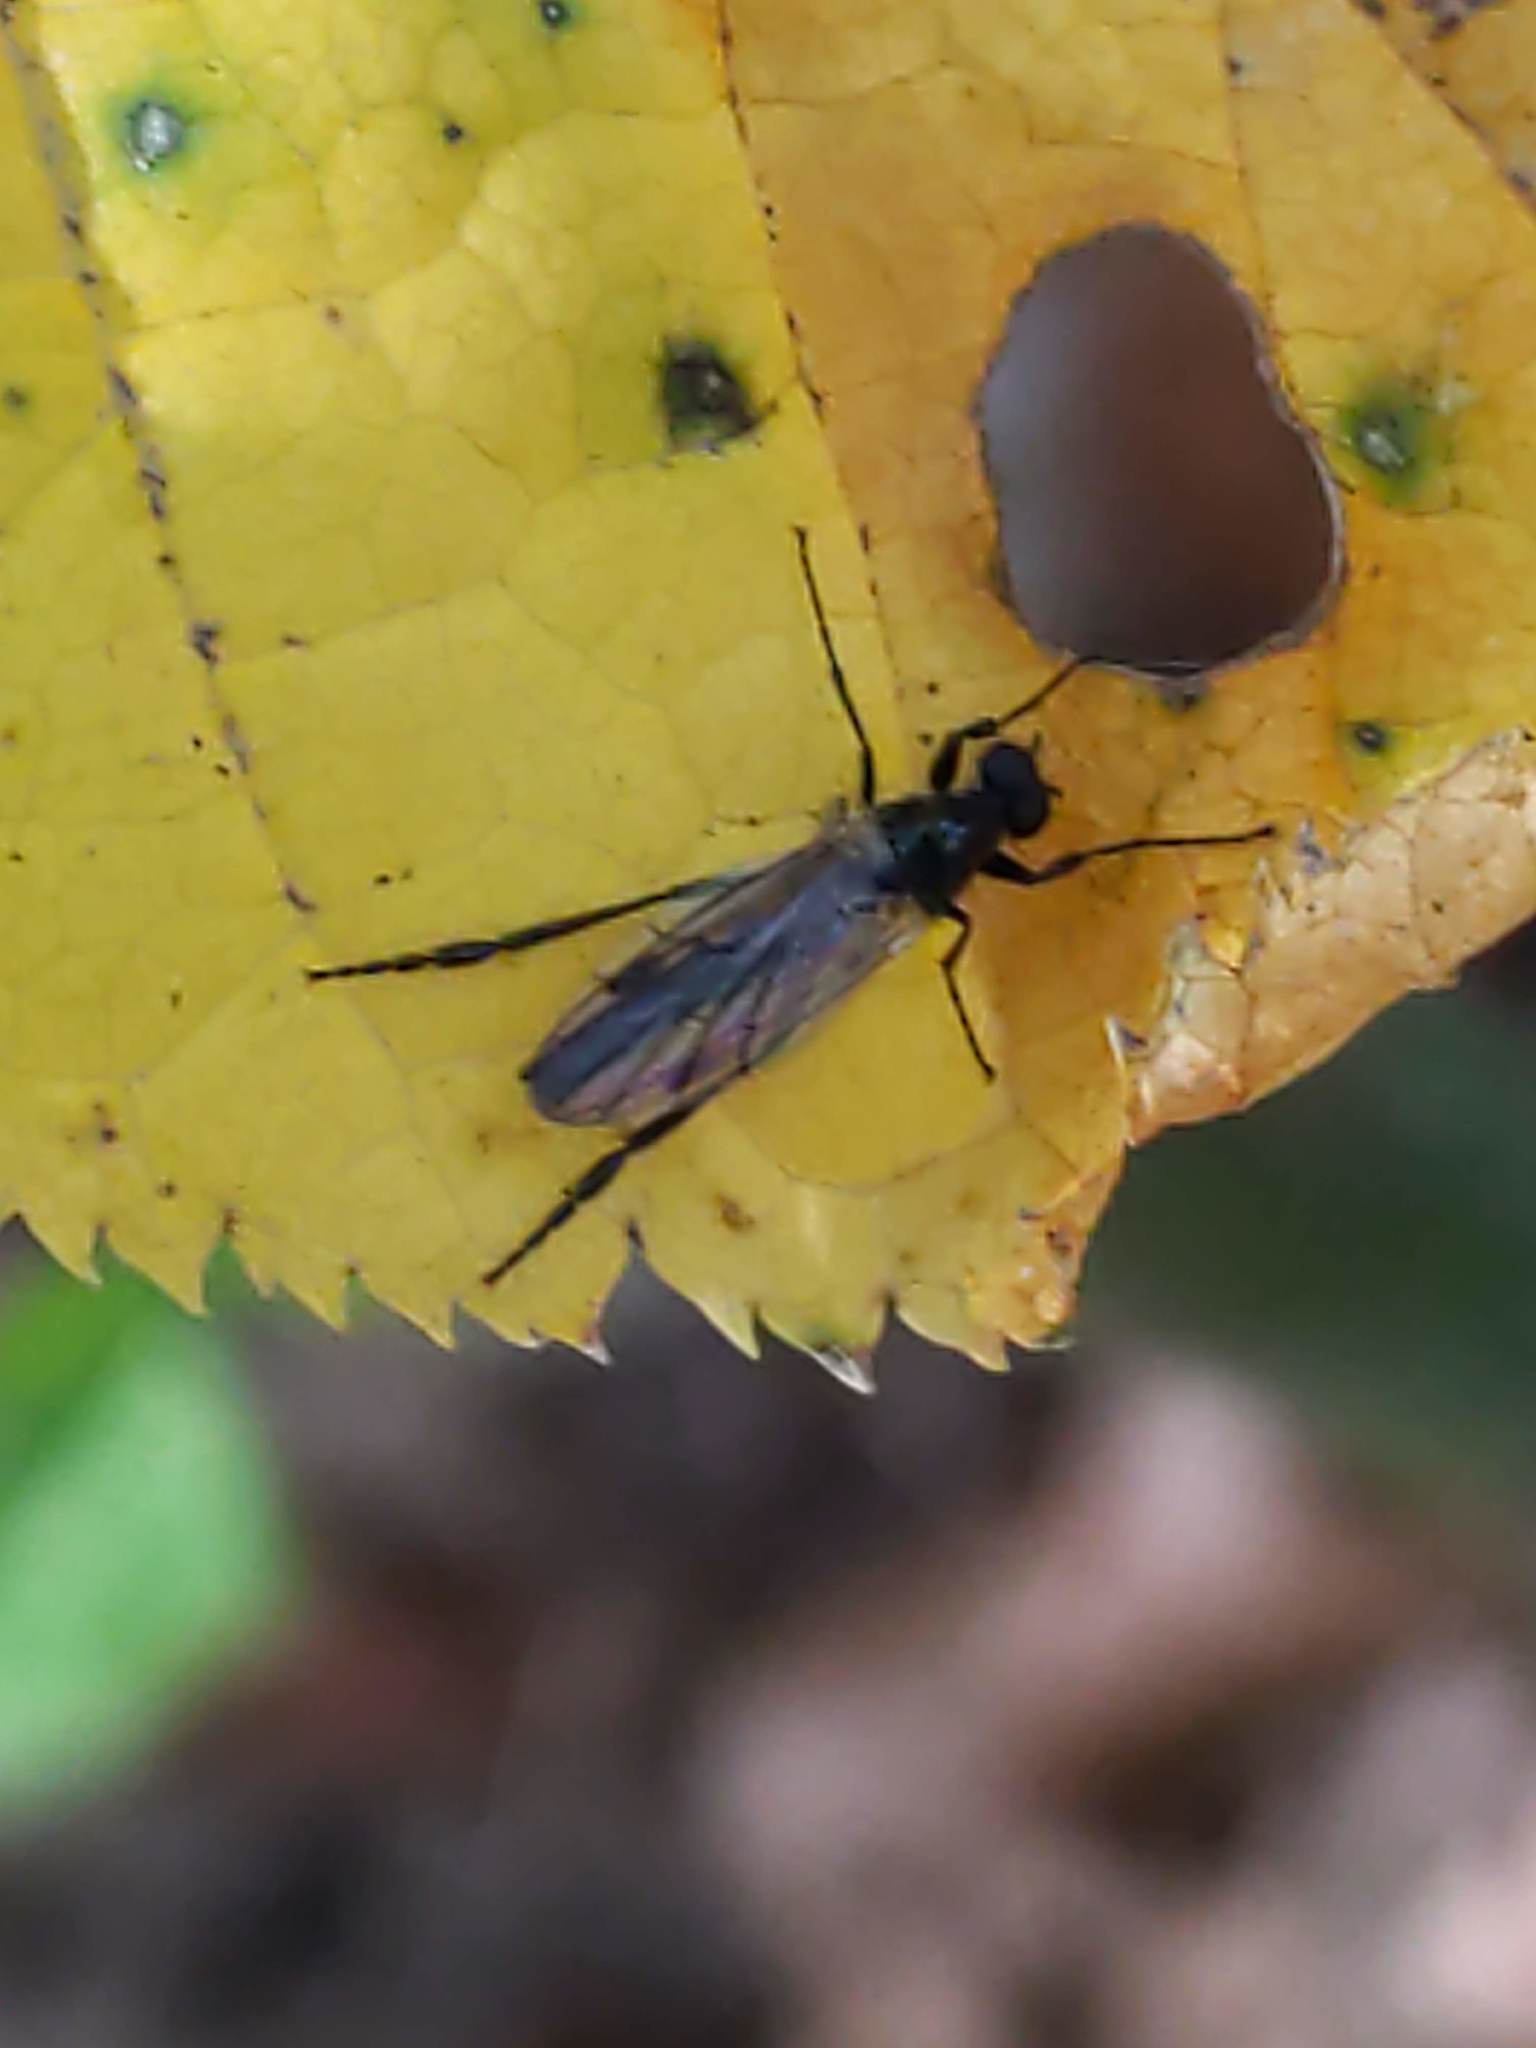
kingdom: Animalia
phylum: Arthropoda
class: Insecta
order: Diptera
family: Bibionidae
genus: Bibio
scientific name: Bibio
